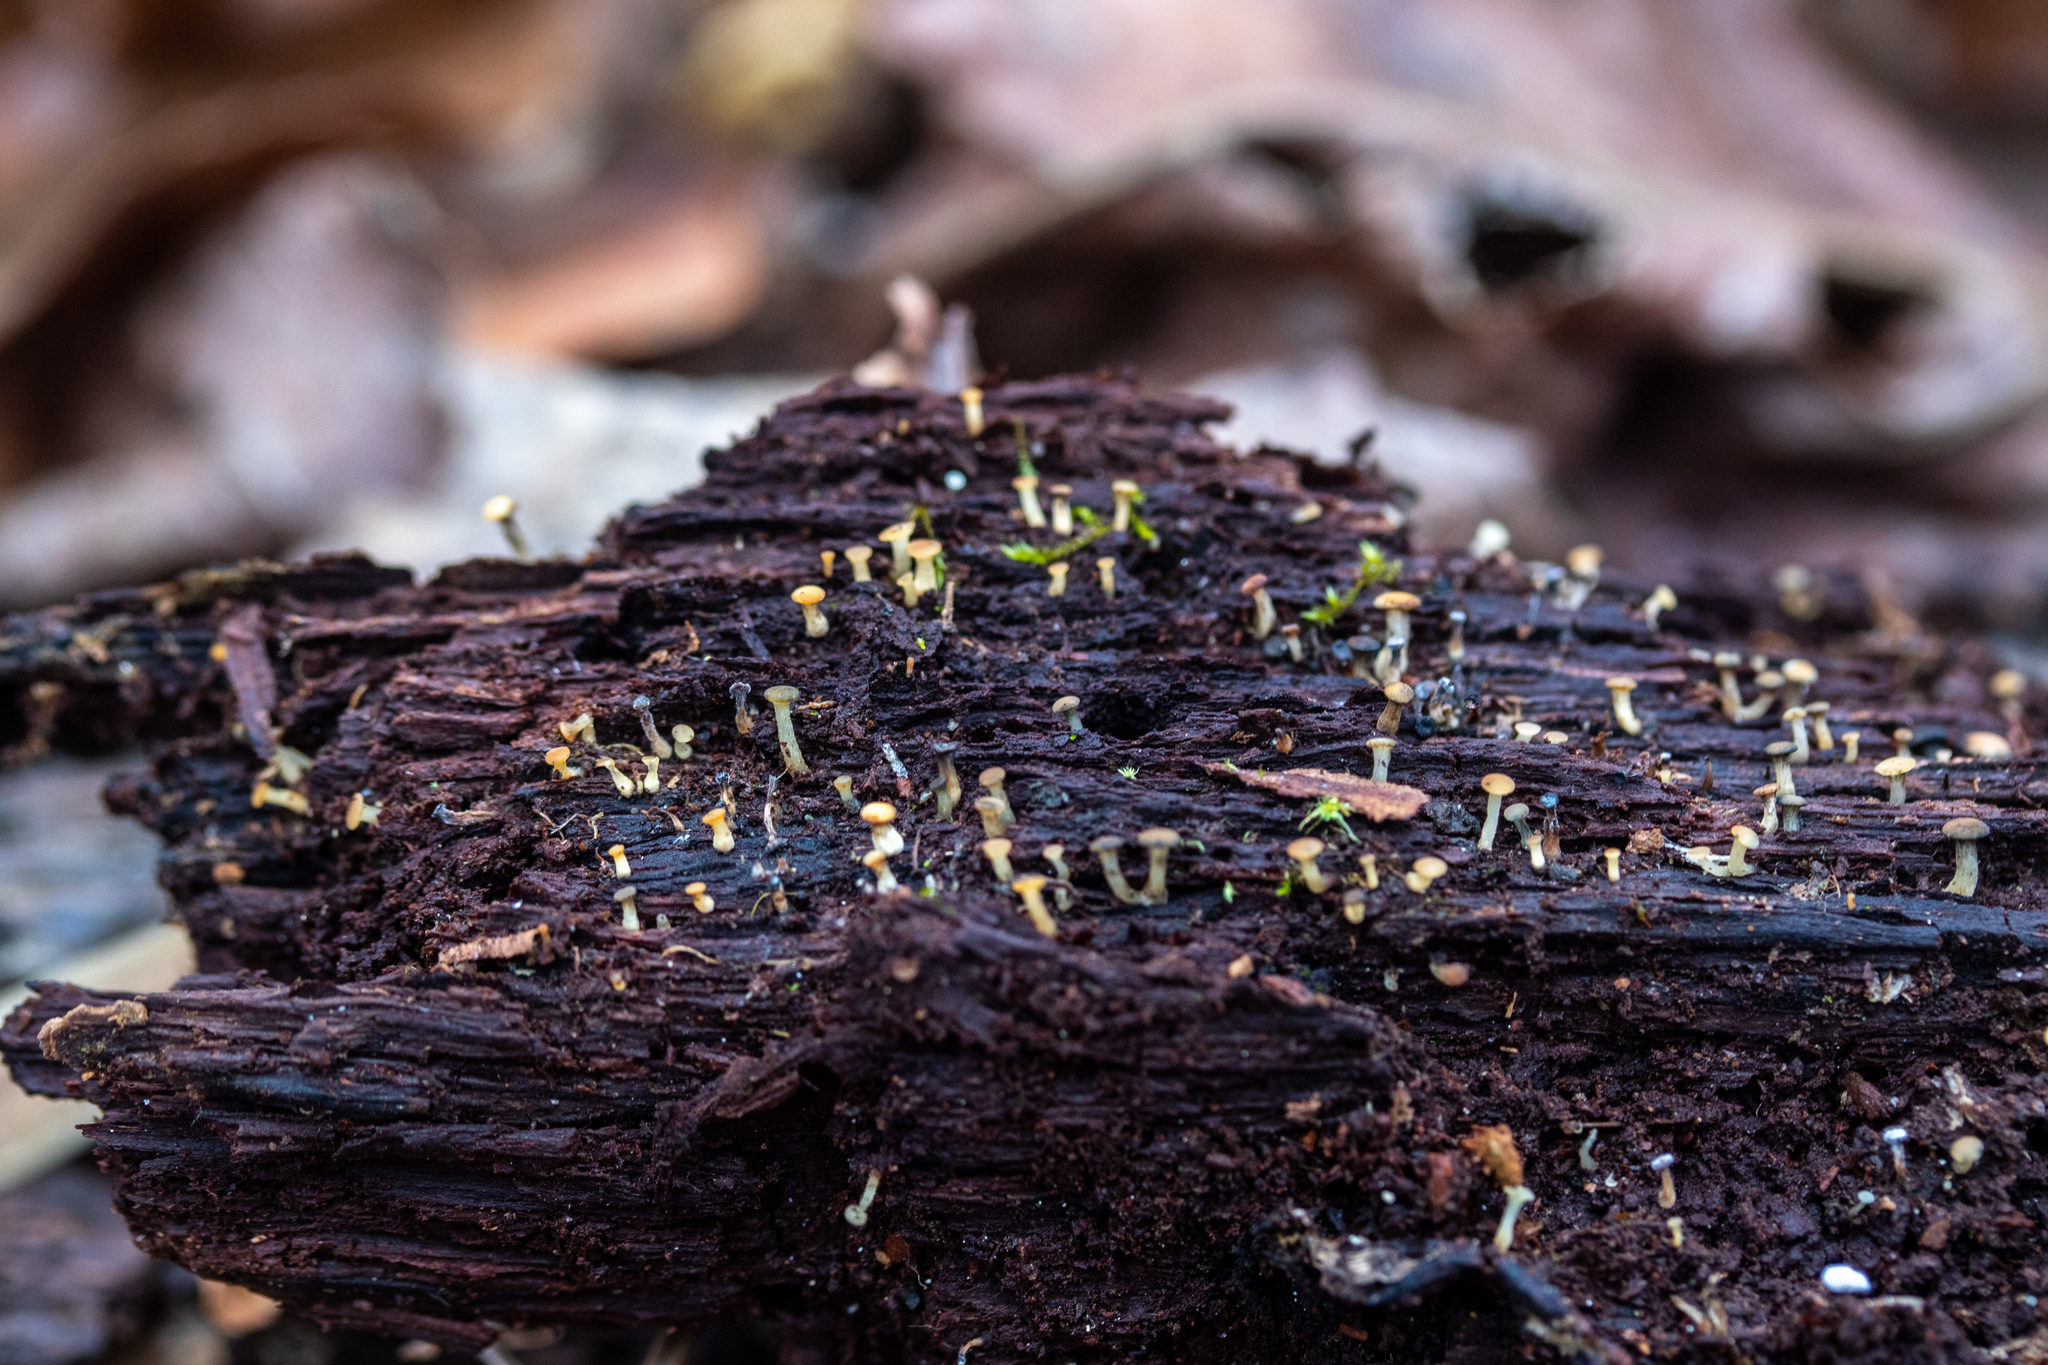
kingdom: Fungi
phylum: Ascomycota
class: Leotiomycetes
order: Helotiales
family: Tricladiaceae
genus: Cudoniella
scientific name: Cudoniella acicularis
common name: Oak pin
